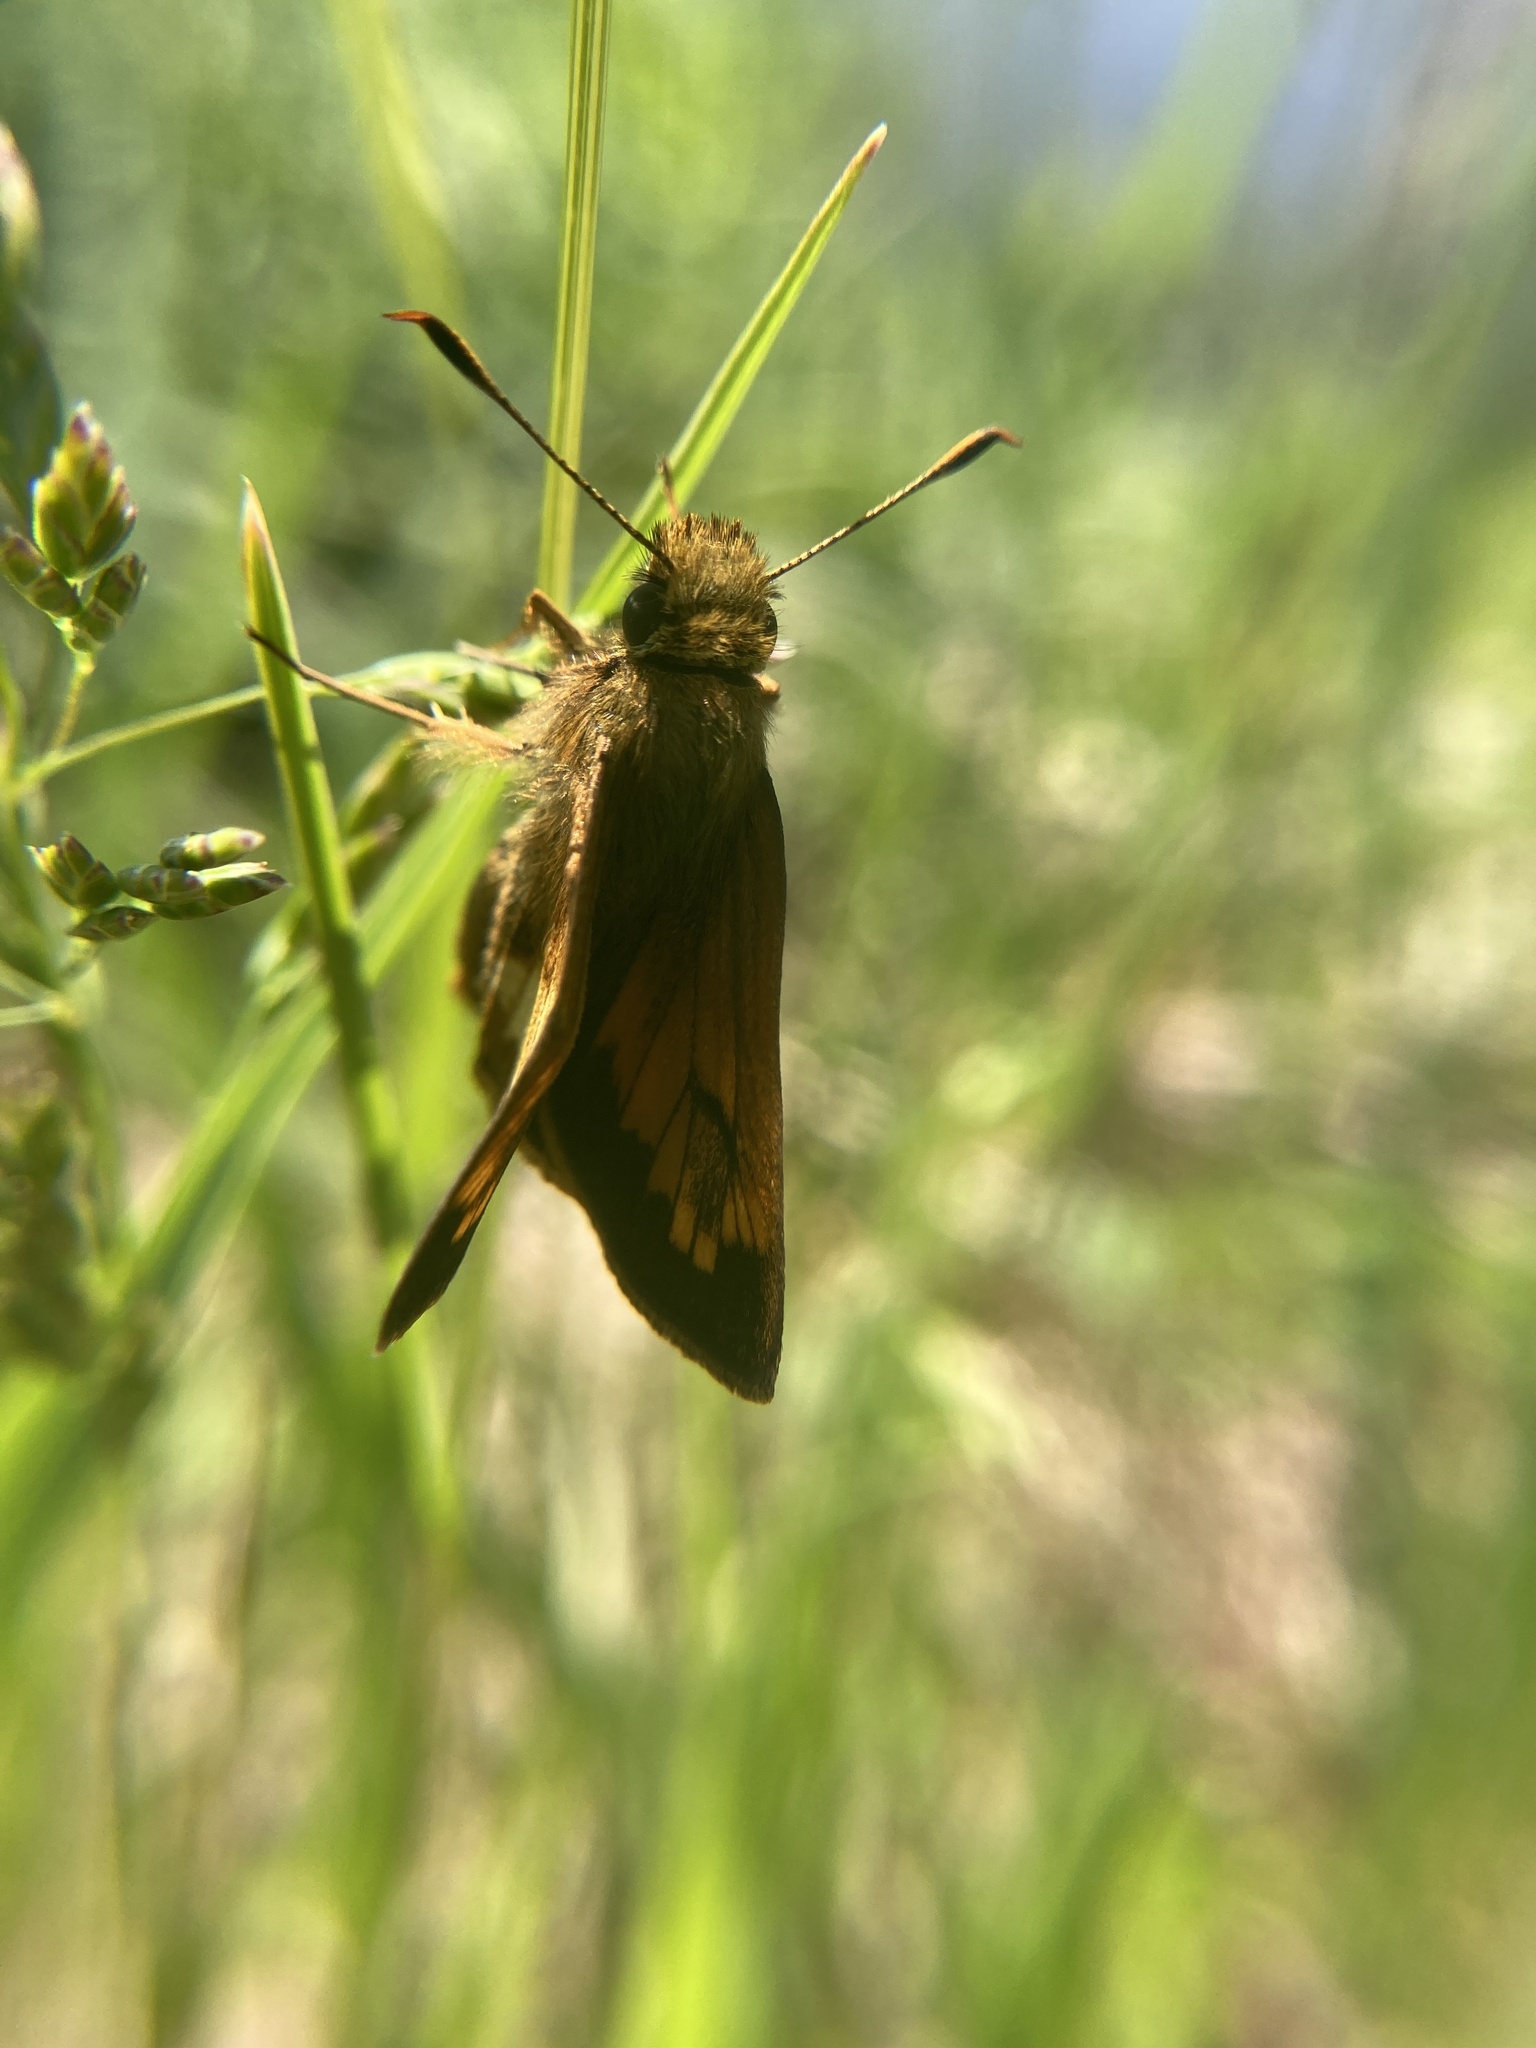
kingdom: Animalia
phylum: Arthropoda
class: Insecta
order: Lepidoptera
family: Hesperiidae
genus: Lon
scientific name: Lon hobomok
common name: Hobomok skipper
